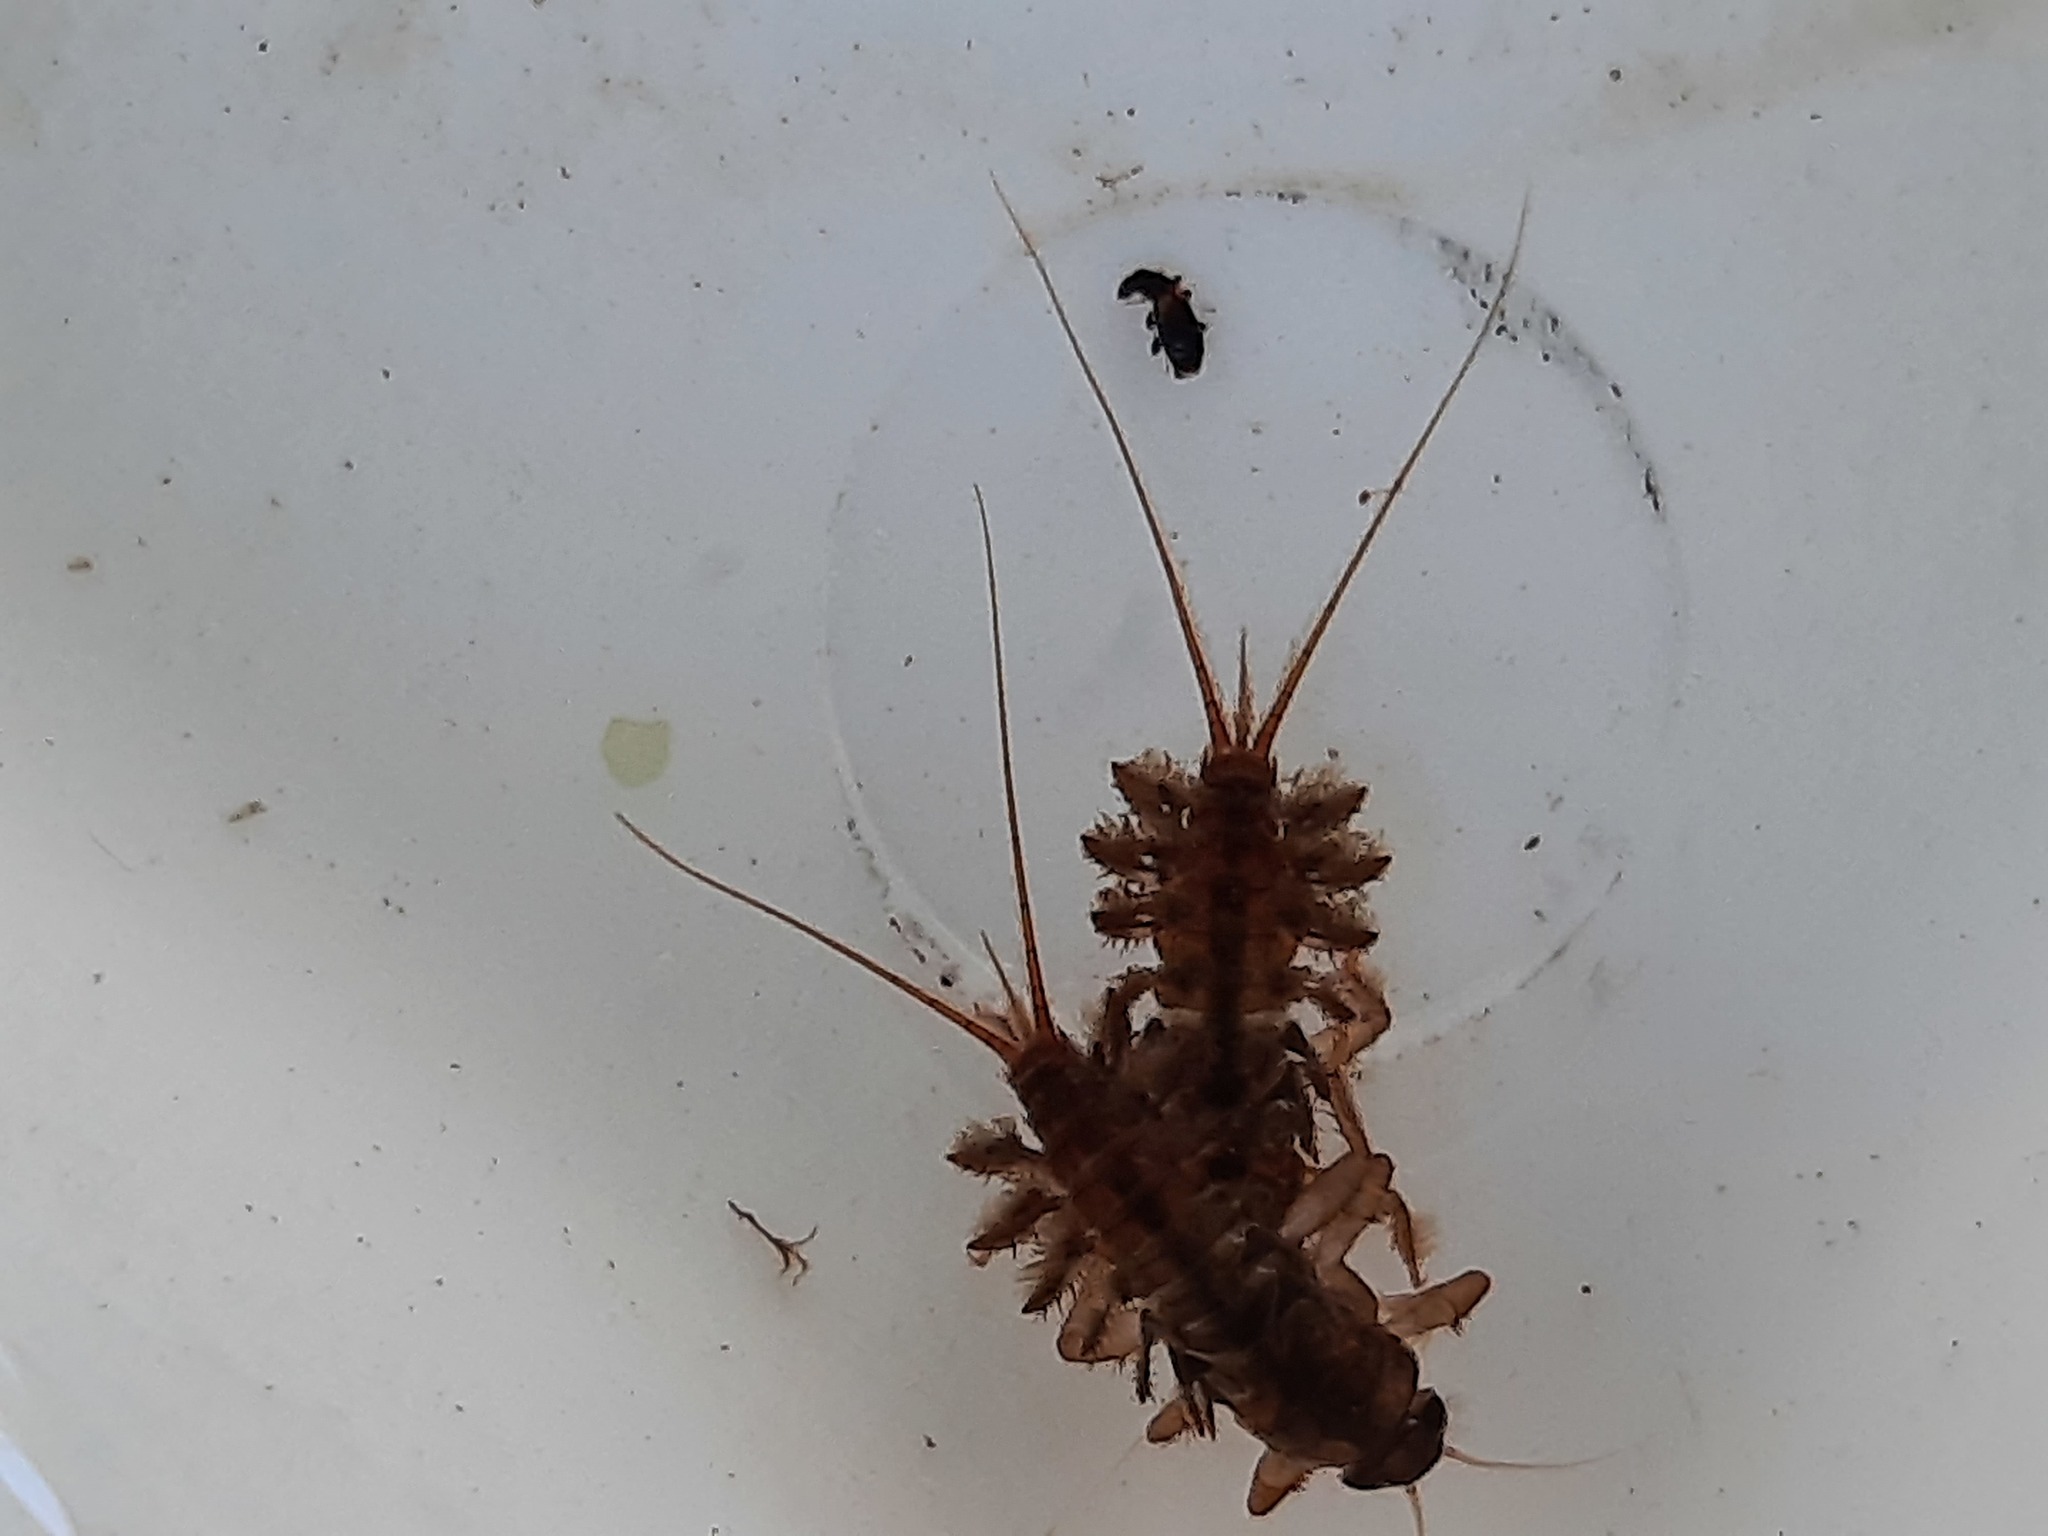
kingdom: Animalia
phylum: Arthropoda
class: Insecta
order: Ephemeroptera
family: Coloburiscidae
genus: Coloburiscus
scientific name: Coloburiscus humeralis
